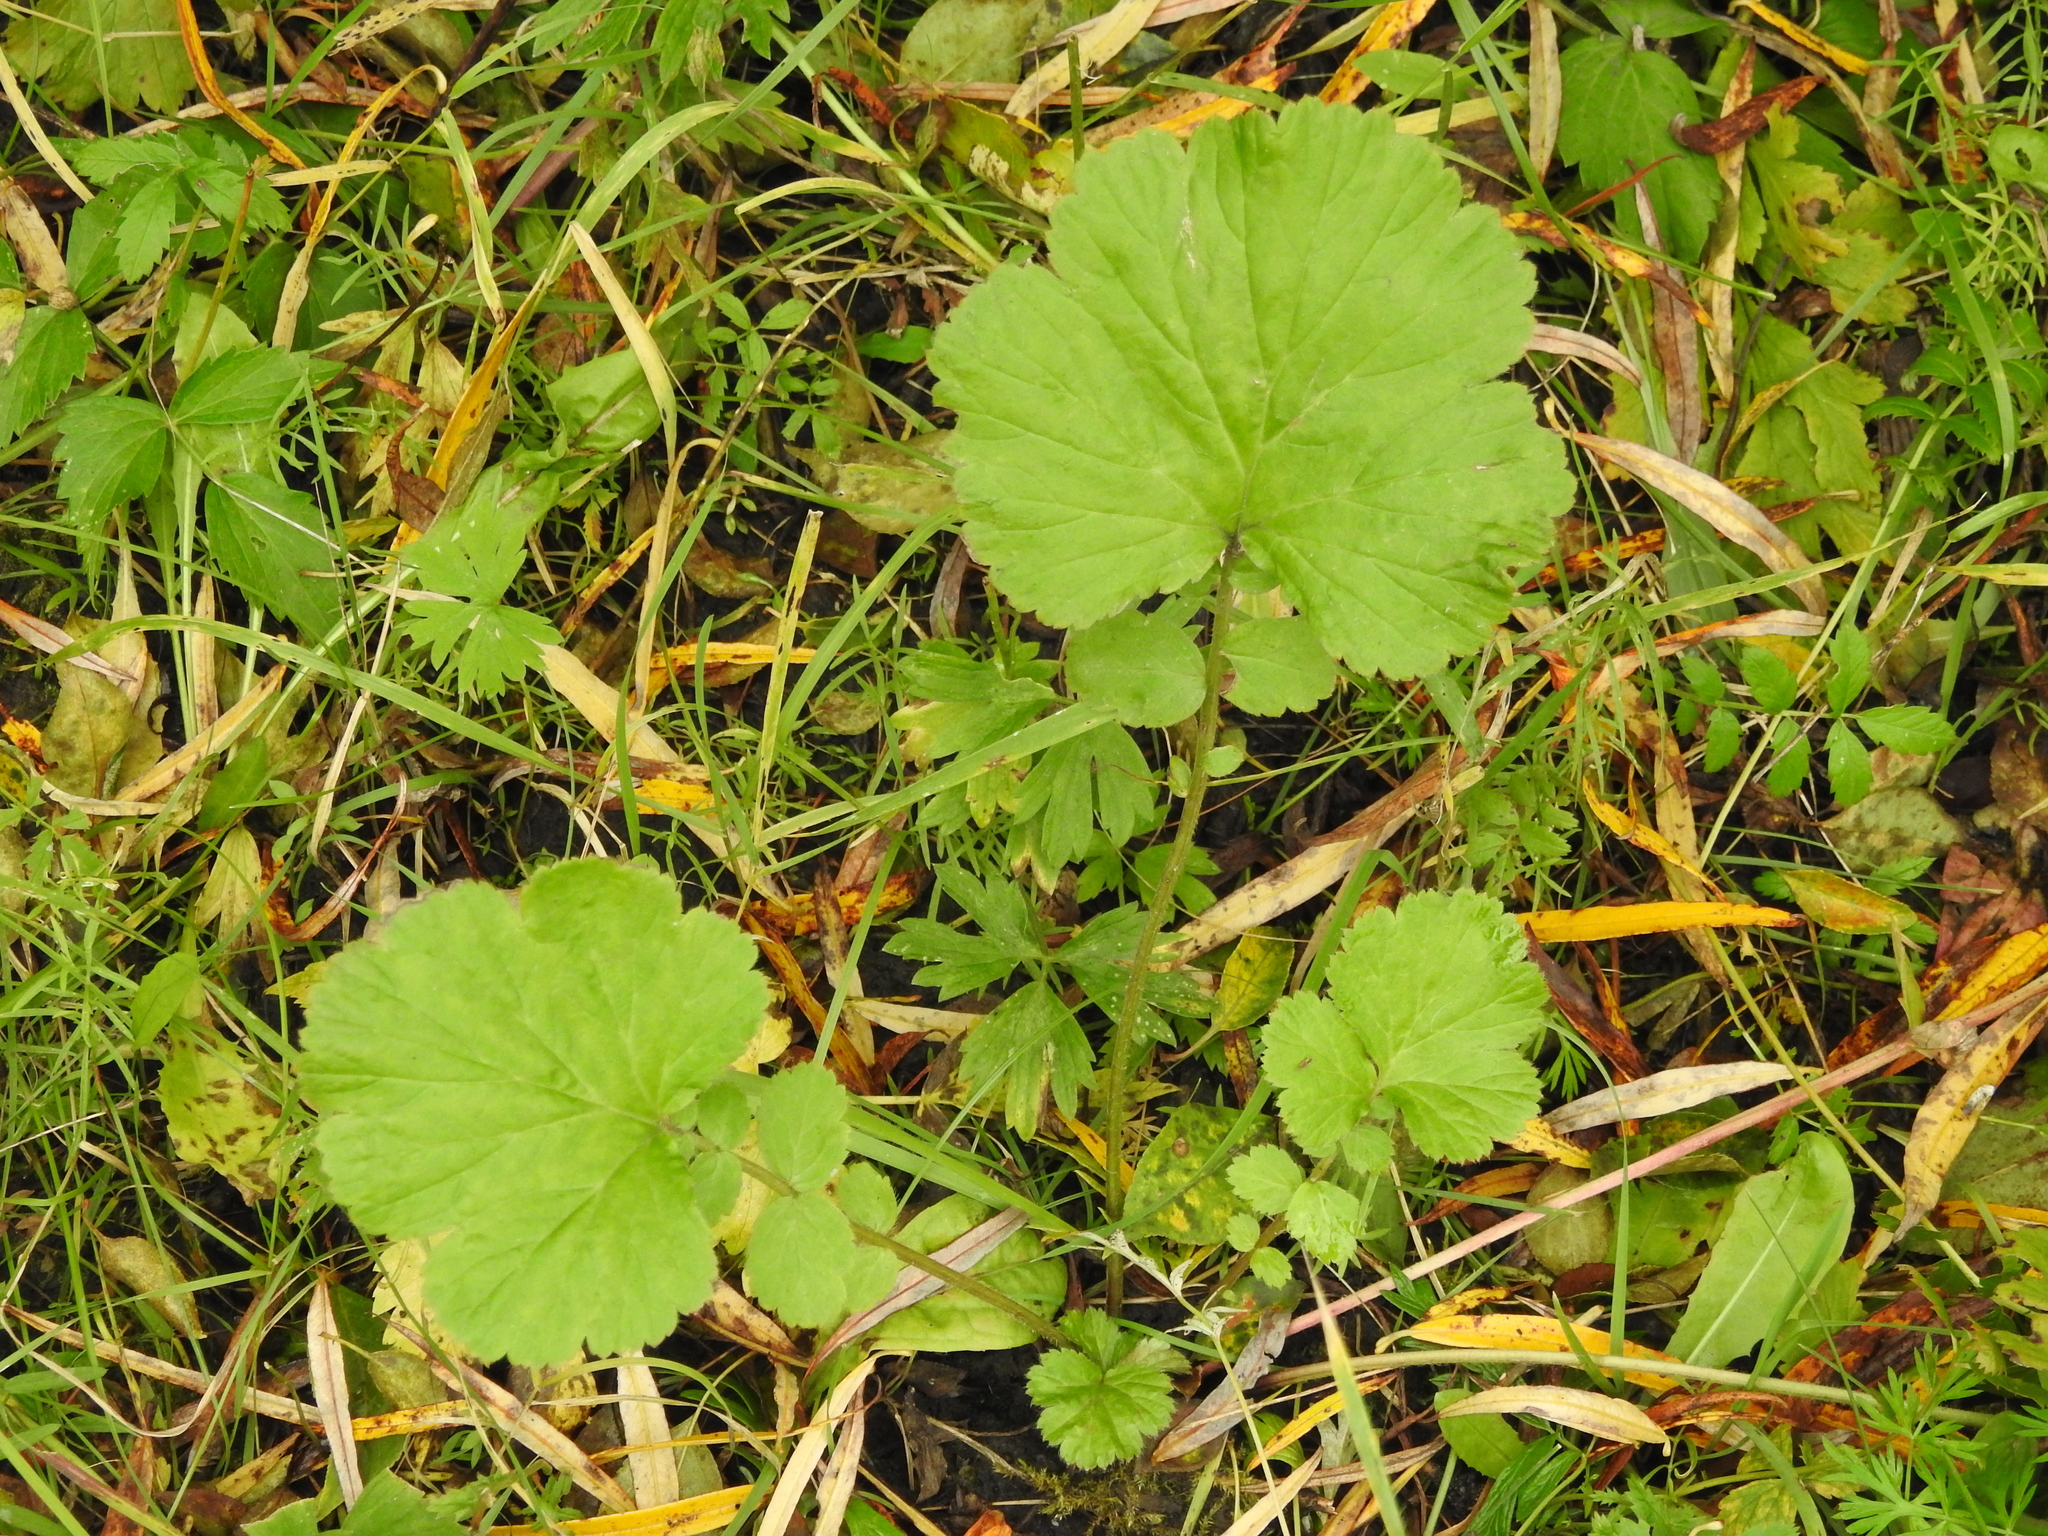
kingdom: Plantae
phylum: Tracheophyta
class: Magnoliopsida
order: Rosales
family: Rosaceae
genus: Geum
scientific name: Geum aleppicum
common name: Yellow avens
